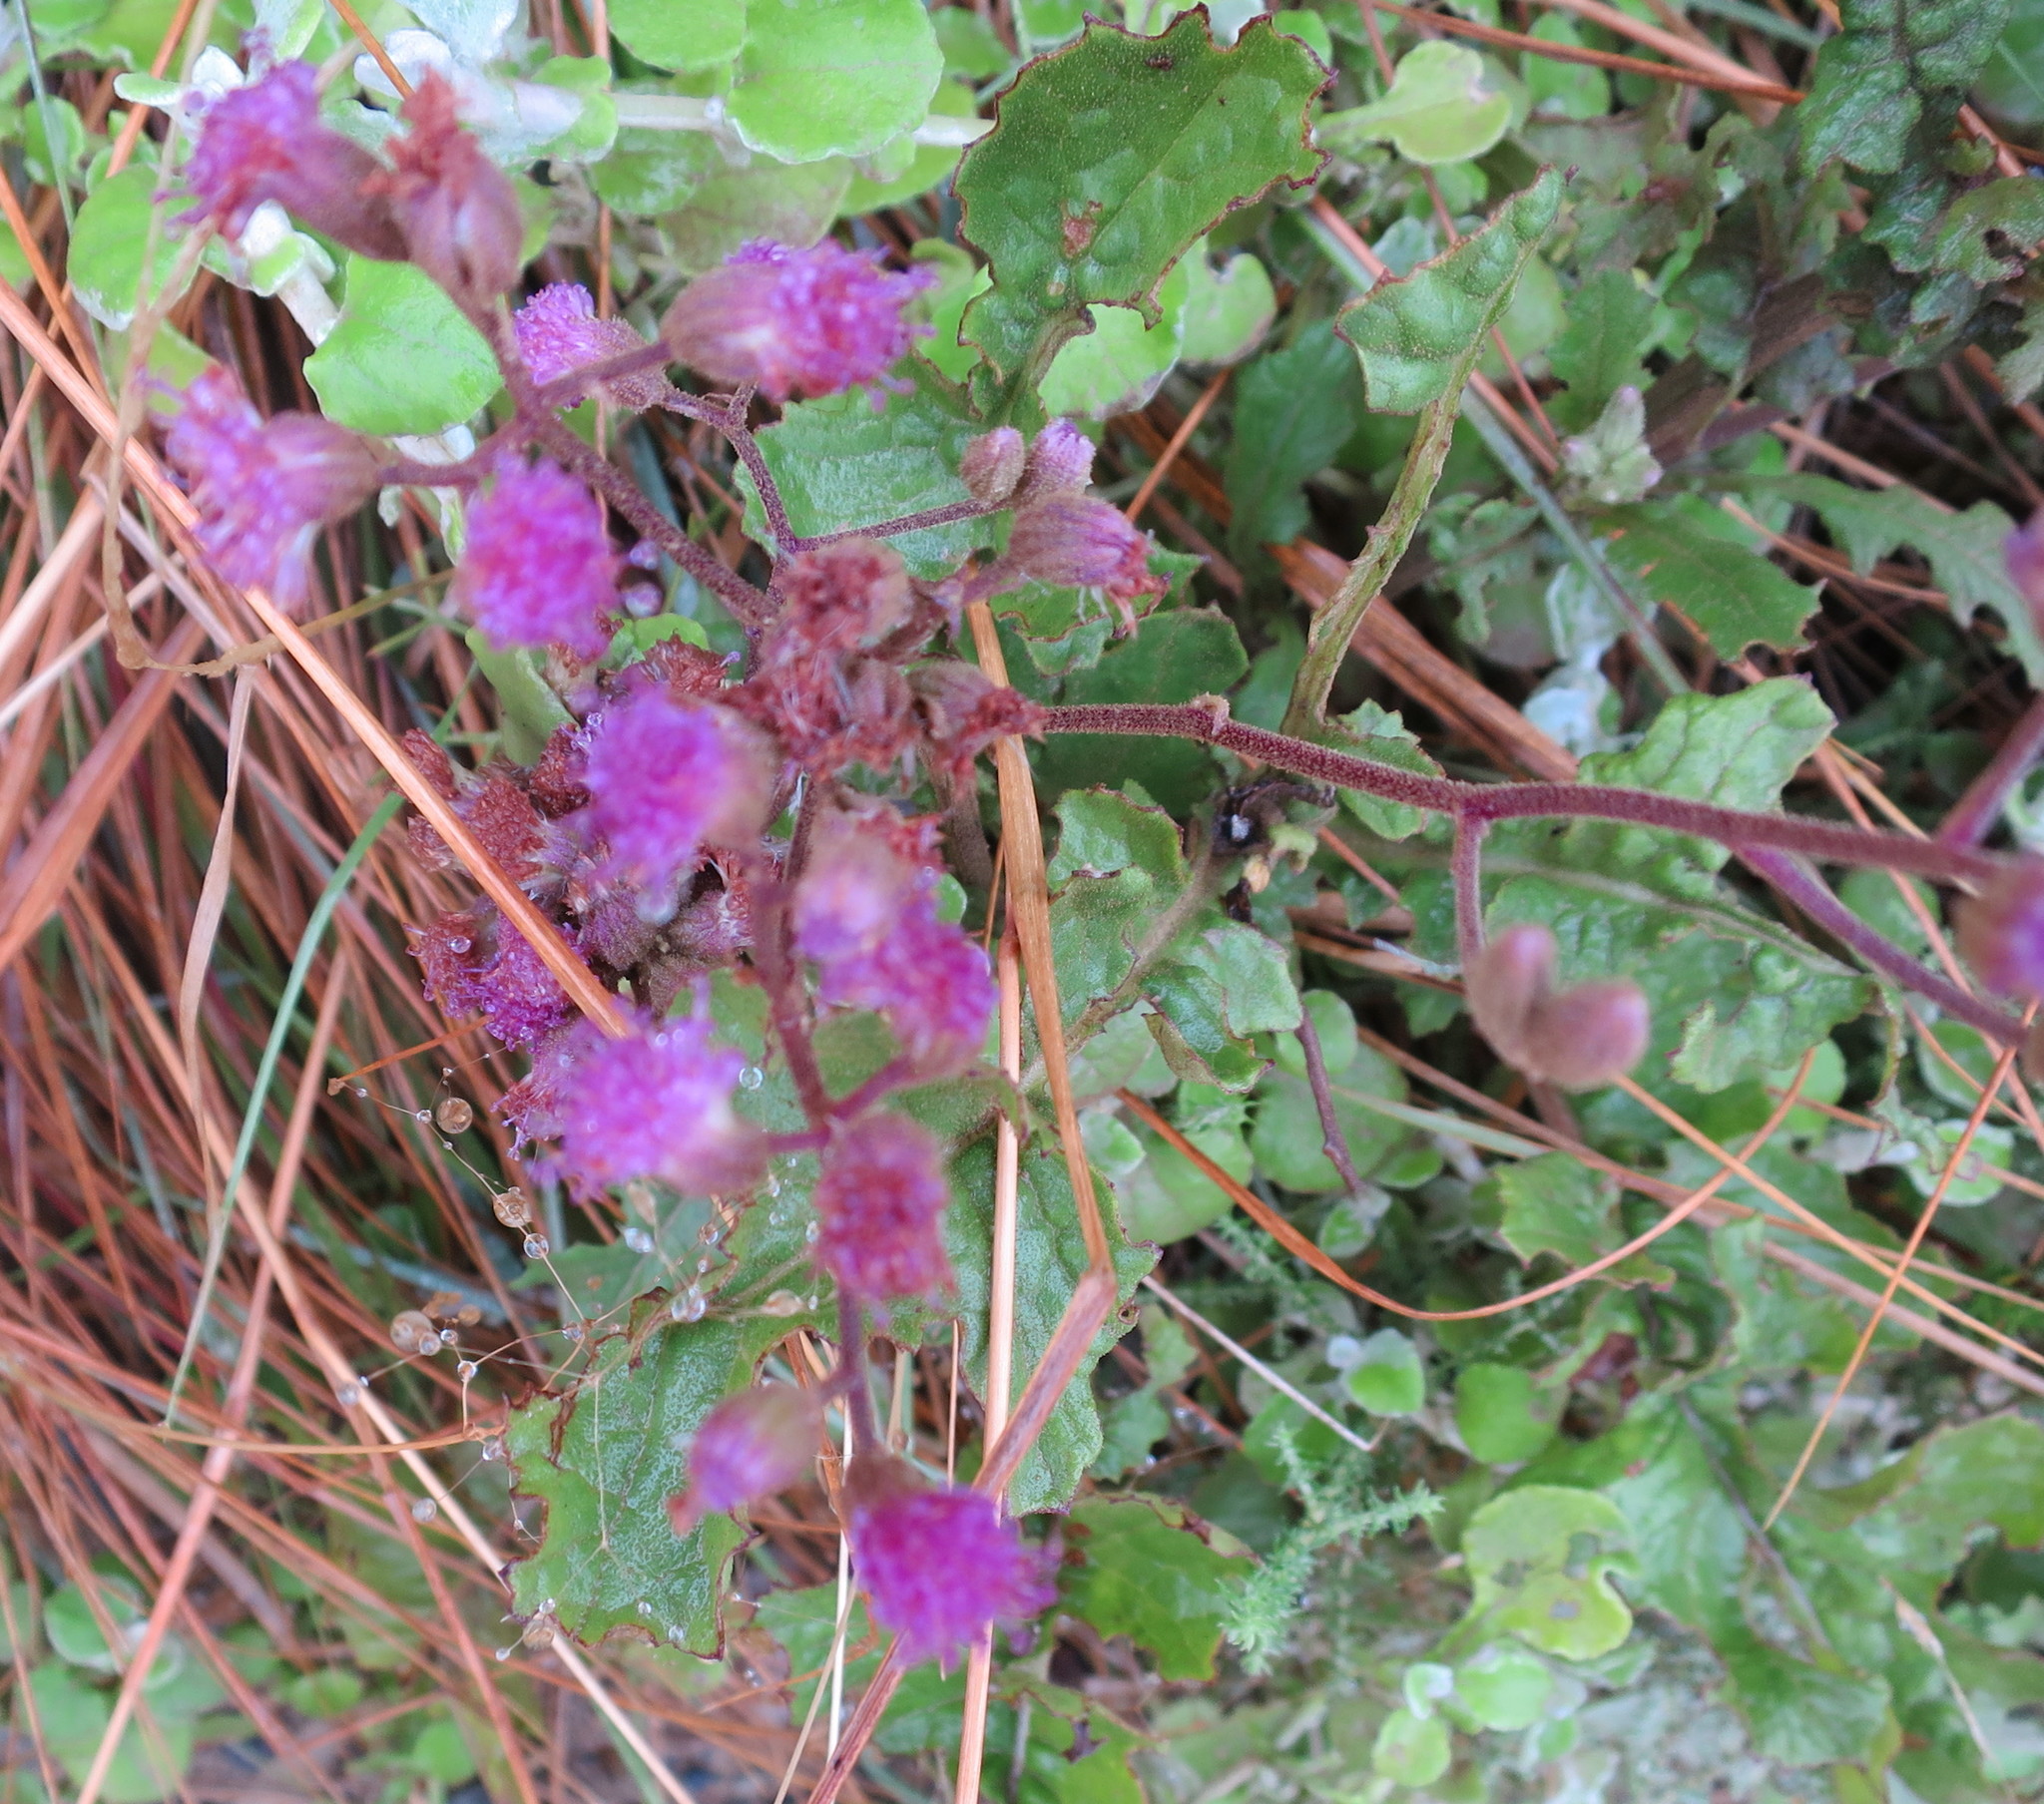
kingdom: Plantae
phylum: Tracheophyta
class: Magnoliopsida
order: Asterales
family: Asteraceae
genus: Senecio
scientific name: Senecio purpureus
